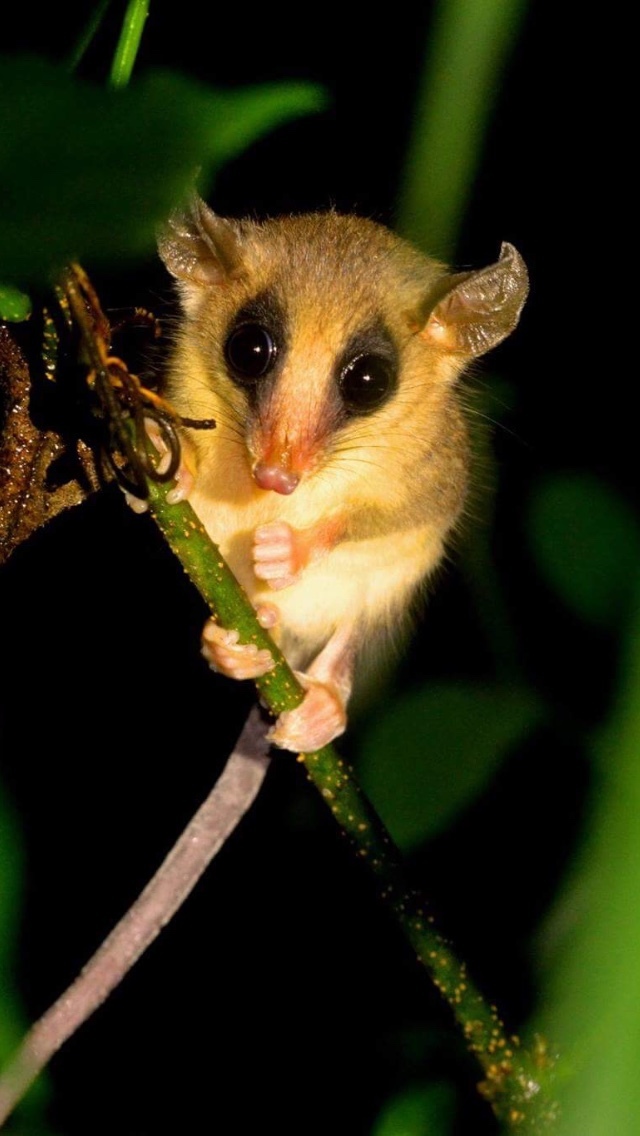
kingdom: Animalia
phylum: Chordata
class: Mammalia
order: Didelphimorphia
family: Didelphidae
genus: Marmosa
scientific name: Marmosa mexicana
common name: Mexican mouse opossum
